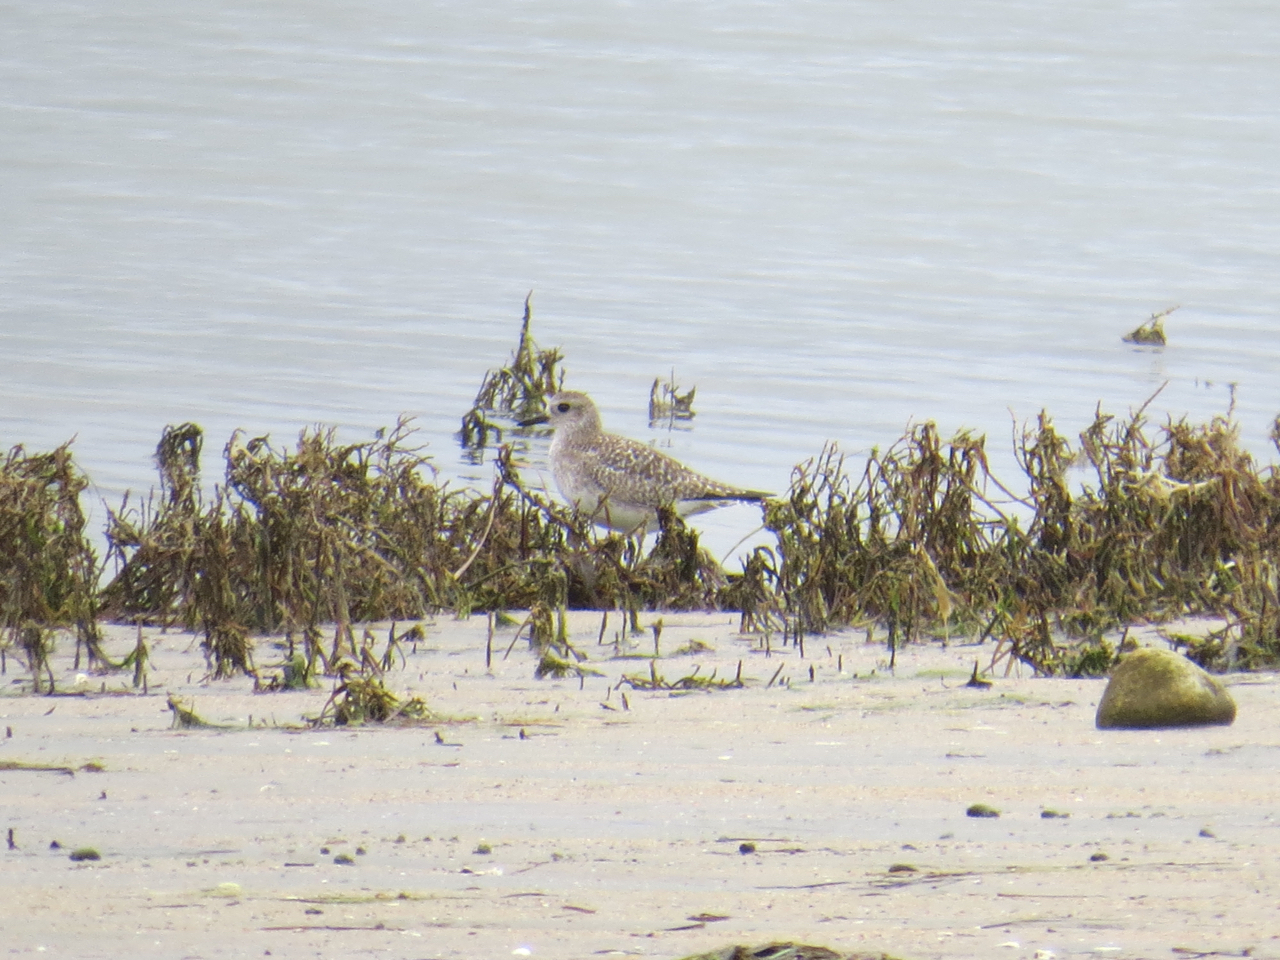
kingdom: Animalia
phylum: Chordata
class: Aves
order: Charadriiformes
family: Charadriidae
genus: Pluvialis
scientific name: Pluvialis squatarola
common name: Grey plover
